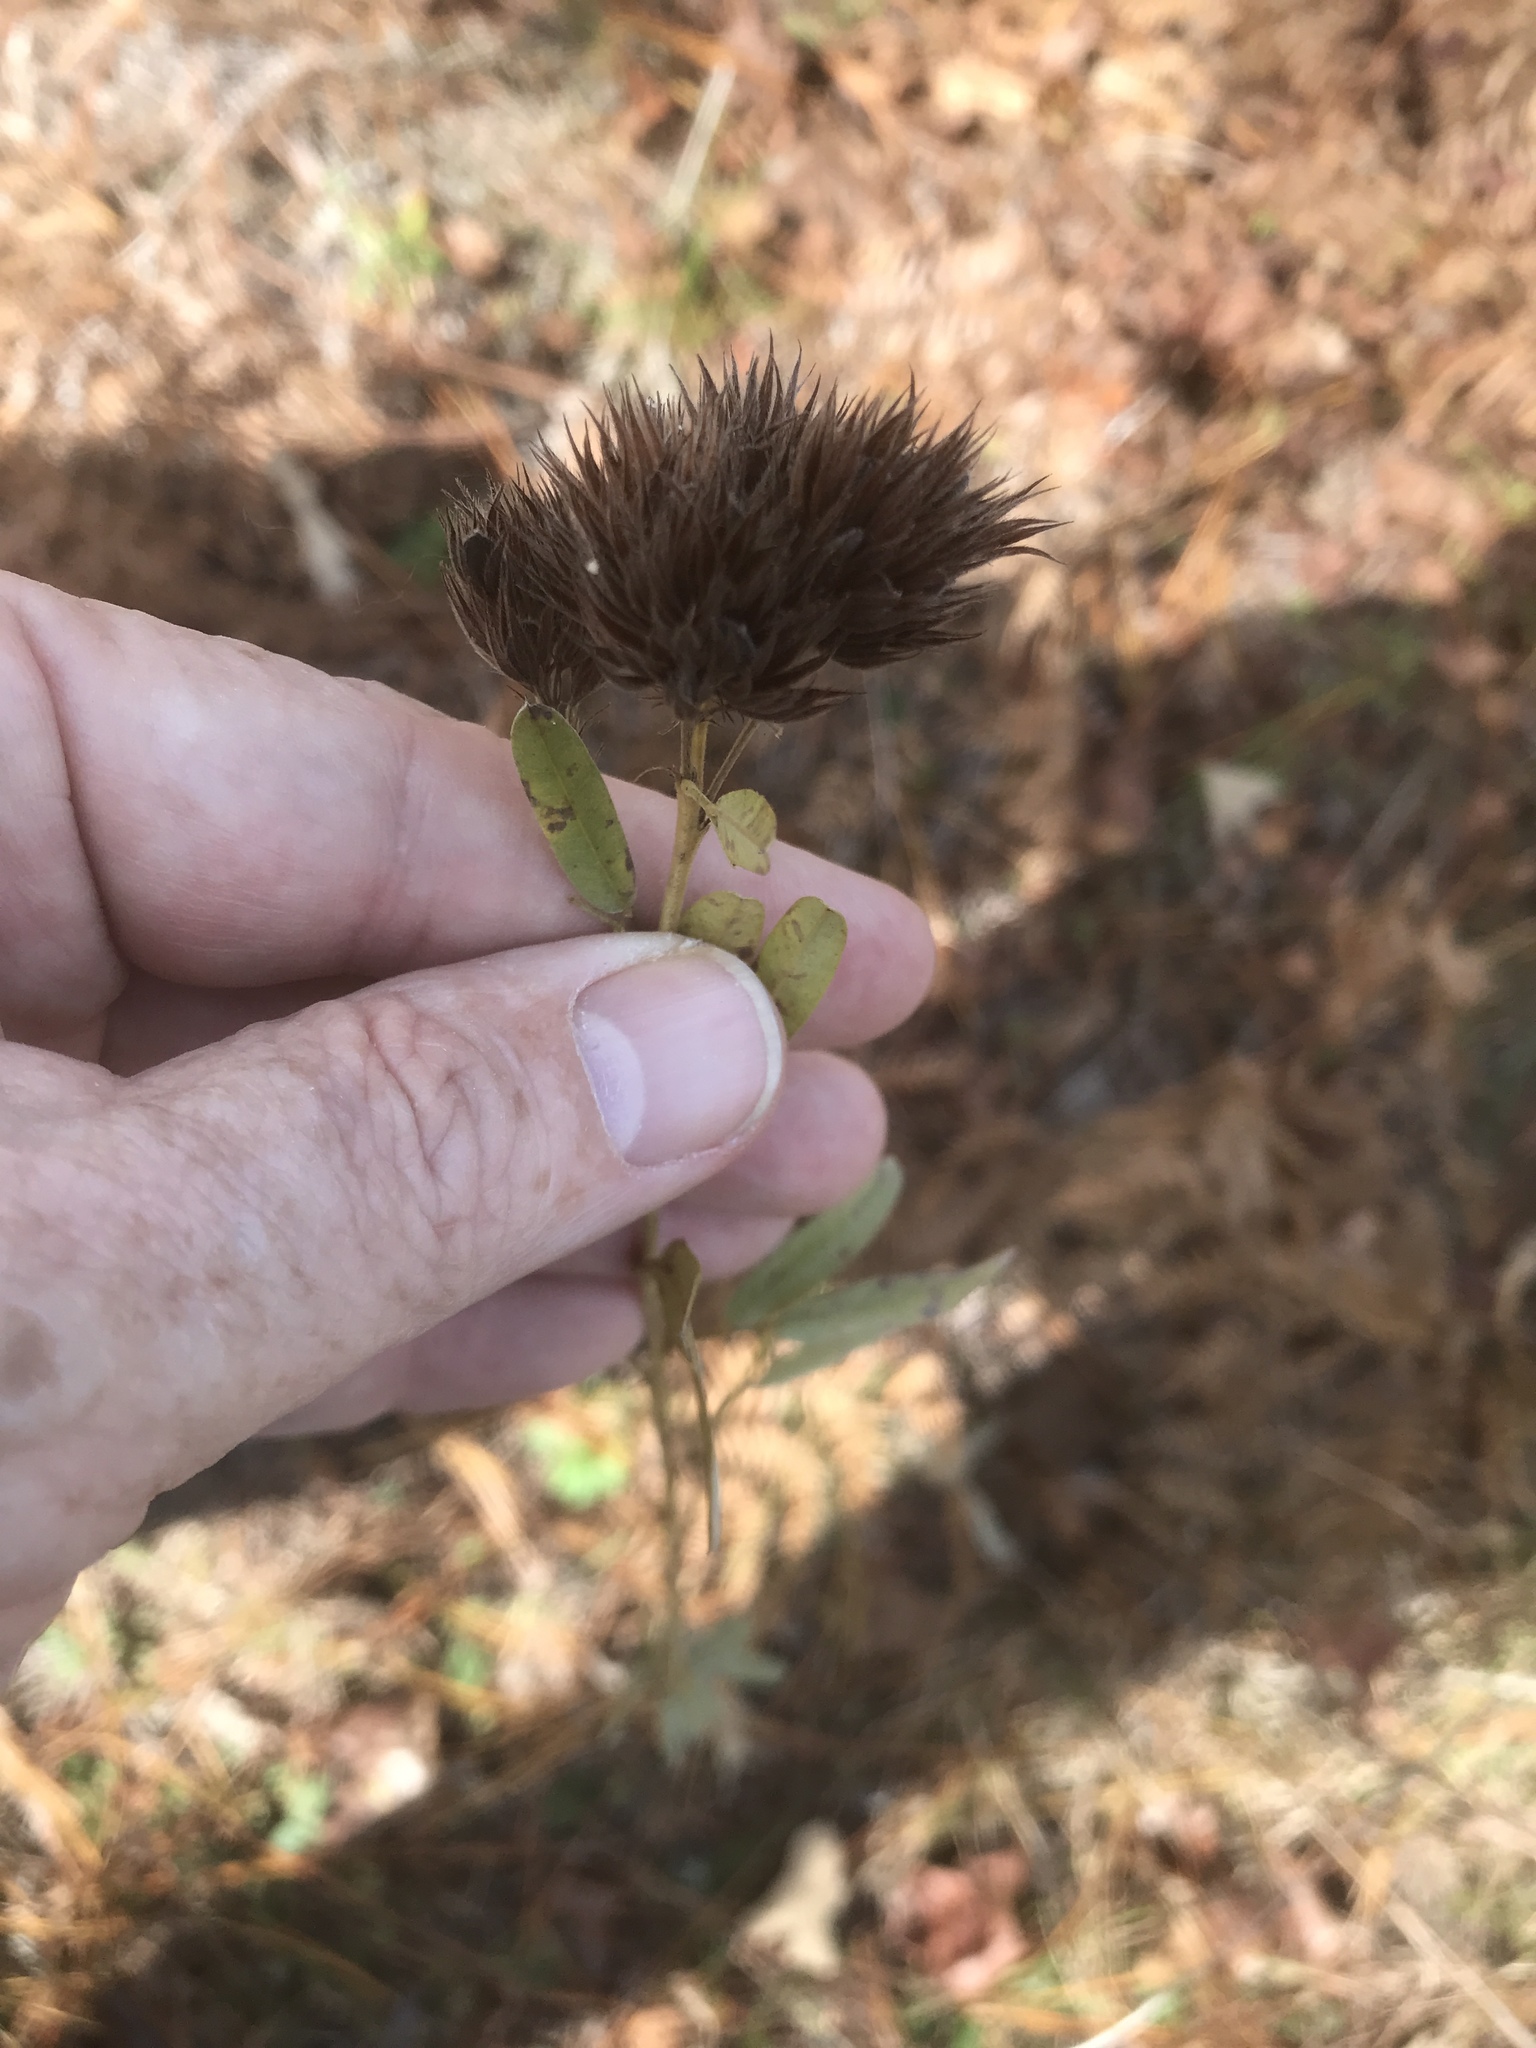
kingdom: Plantae
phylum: Tracheophyta
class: Magnoliopsida
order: Fabales
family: Fabaceae
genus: Lespedeza
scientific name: Lespedeza capitata
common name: Dusty clover
